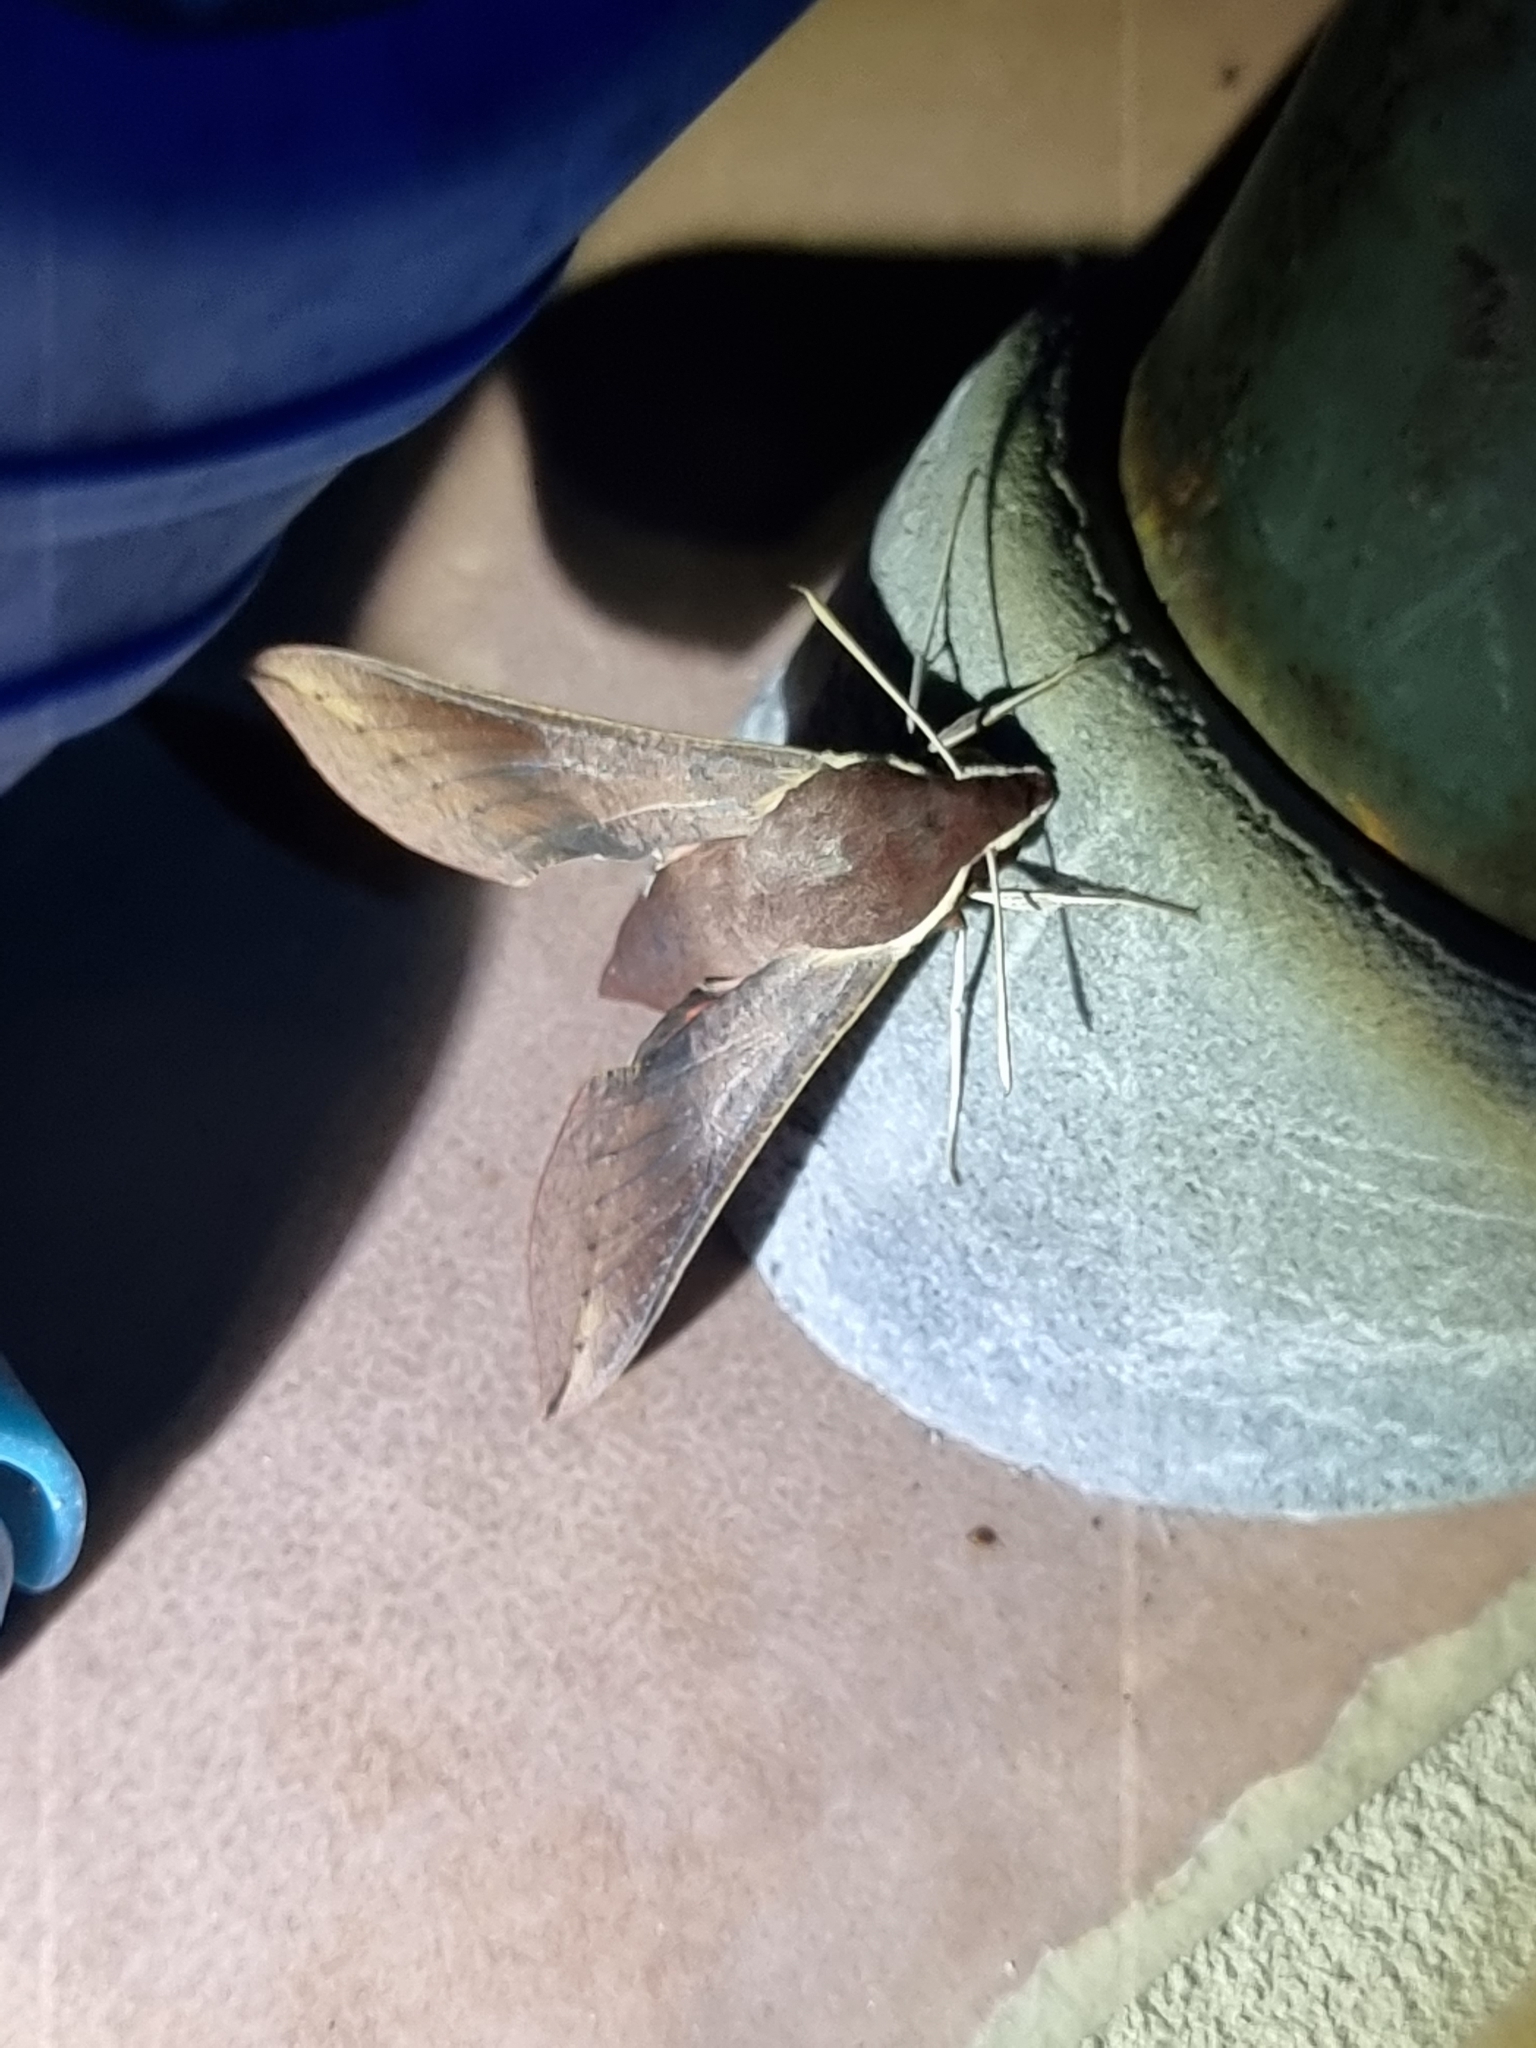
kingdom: Animalia
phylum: Arthropoda
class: Insecta
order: Lepidoptera
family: Sphingidae
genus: Hippotion
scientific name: Hippotion scrofa
